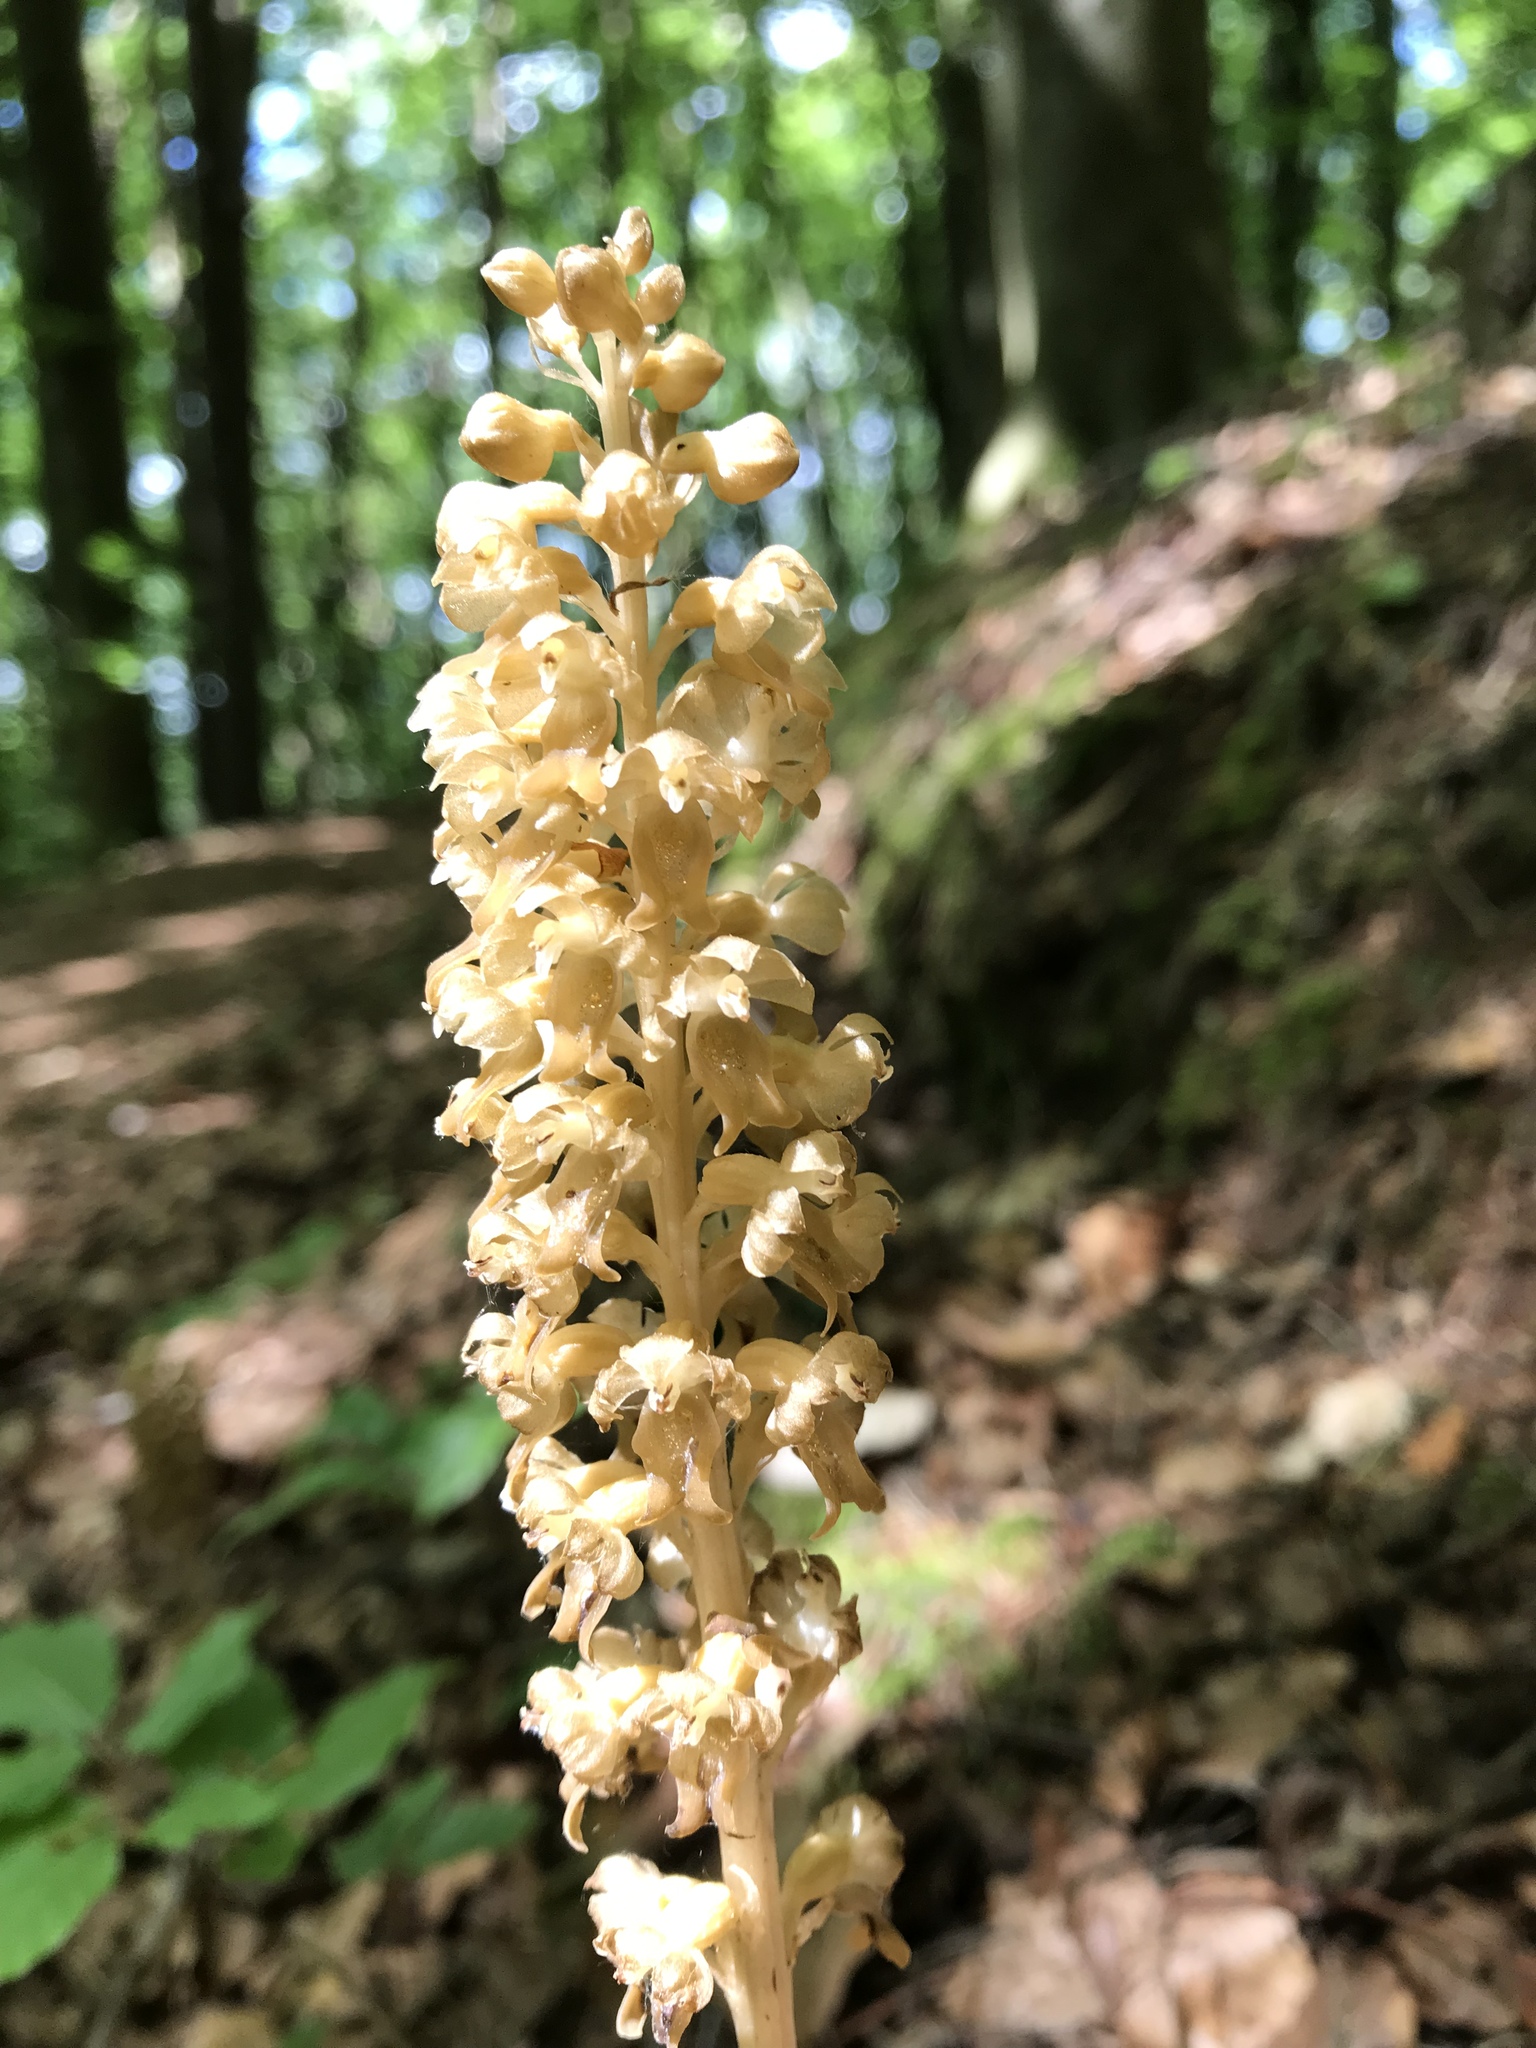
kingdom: Plantae
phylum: Tracheophyta
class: Liliopsida
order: Asparagales
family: Orchidaceae
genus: Neottia
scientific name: Neottia nidus-avis
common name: Bird's-nest orchid
